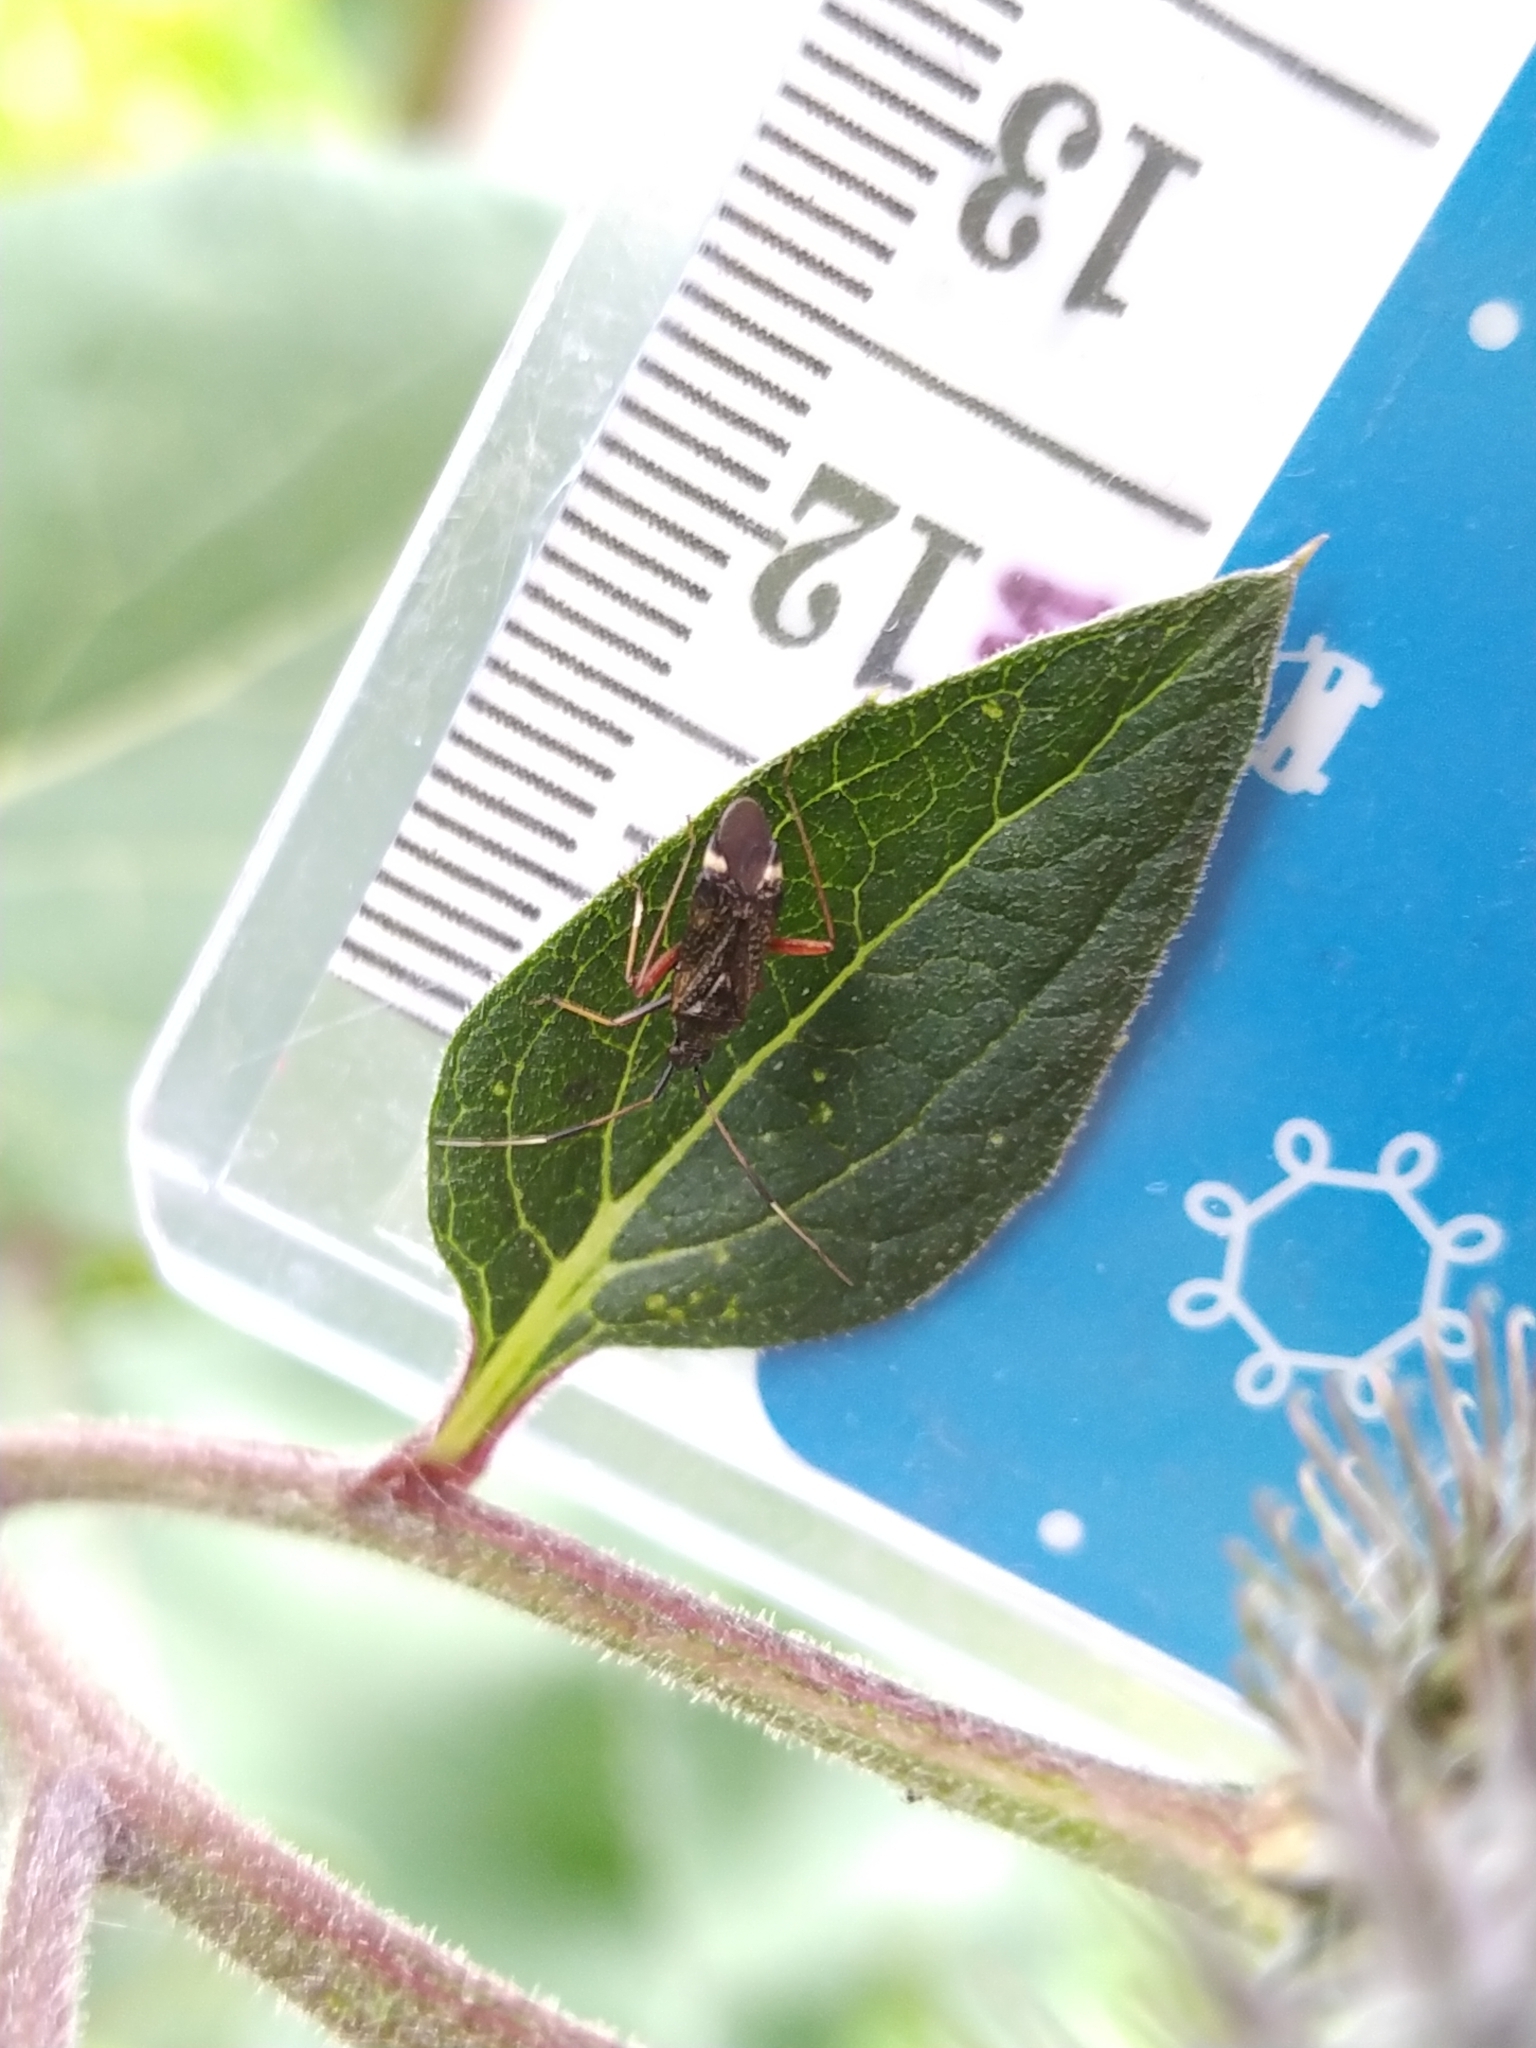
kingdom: Animalia
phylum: Arthropoda
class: Insecta
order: Hemiptera
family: Miridae
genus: Closterotomus
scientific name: Closterotomus biclavatus
